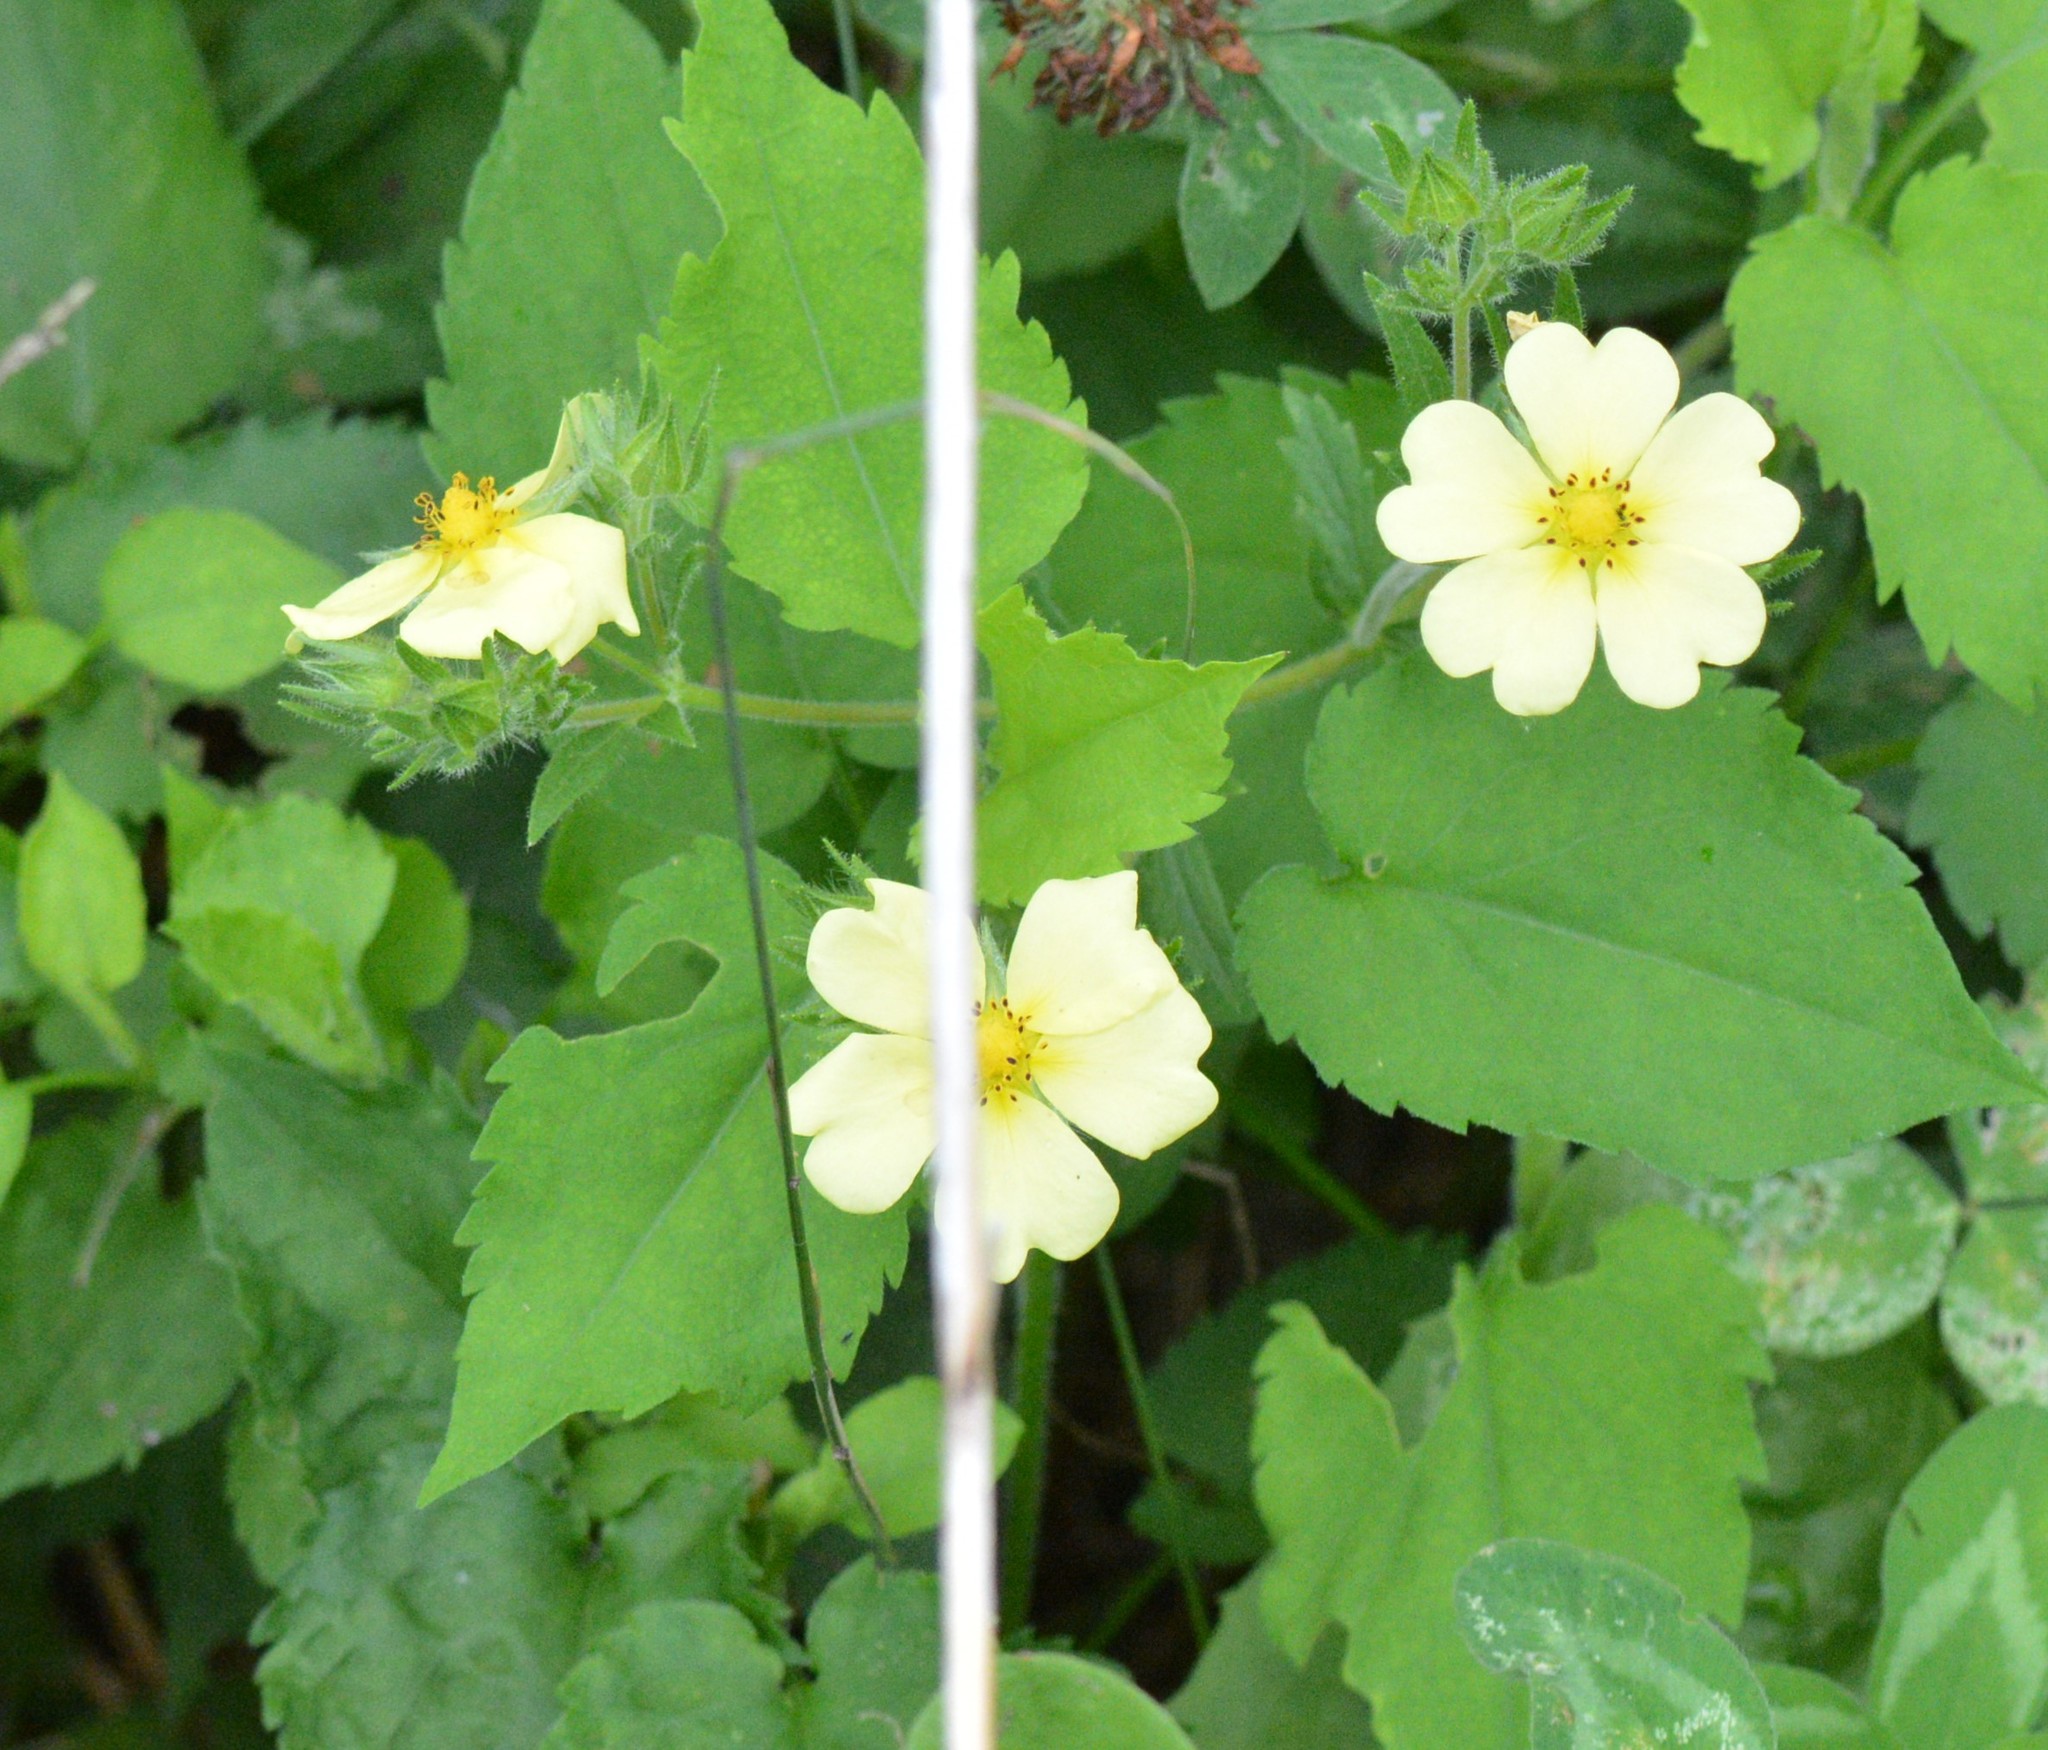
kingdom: Plantae
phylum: Tracheophyta
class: Magnoliopsida
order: Rosales
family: Rosaceae
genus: Potentilla
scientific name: Potentilla recta
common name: Sulphur cinquefoil
